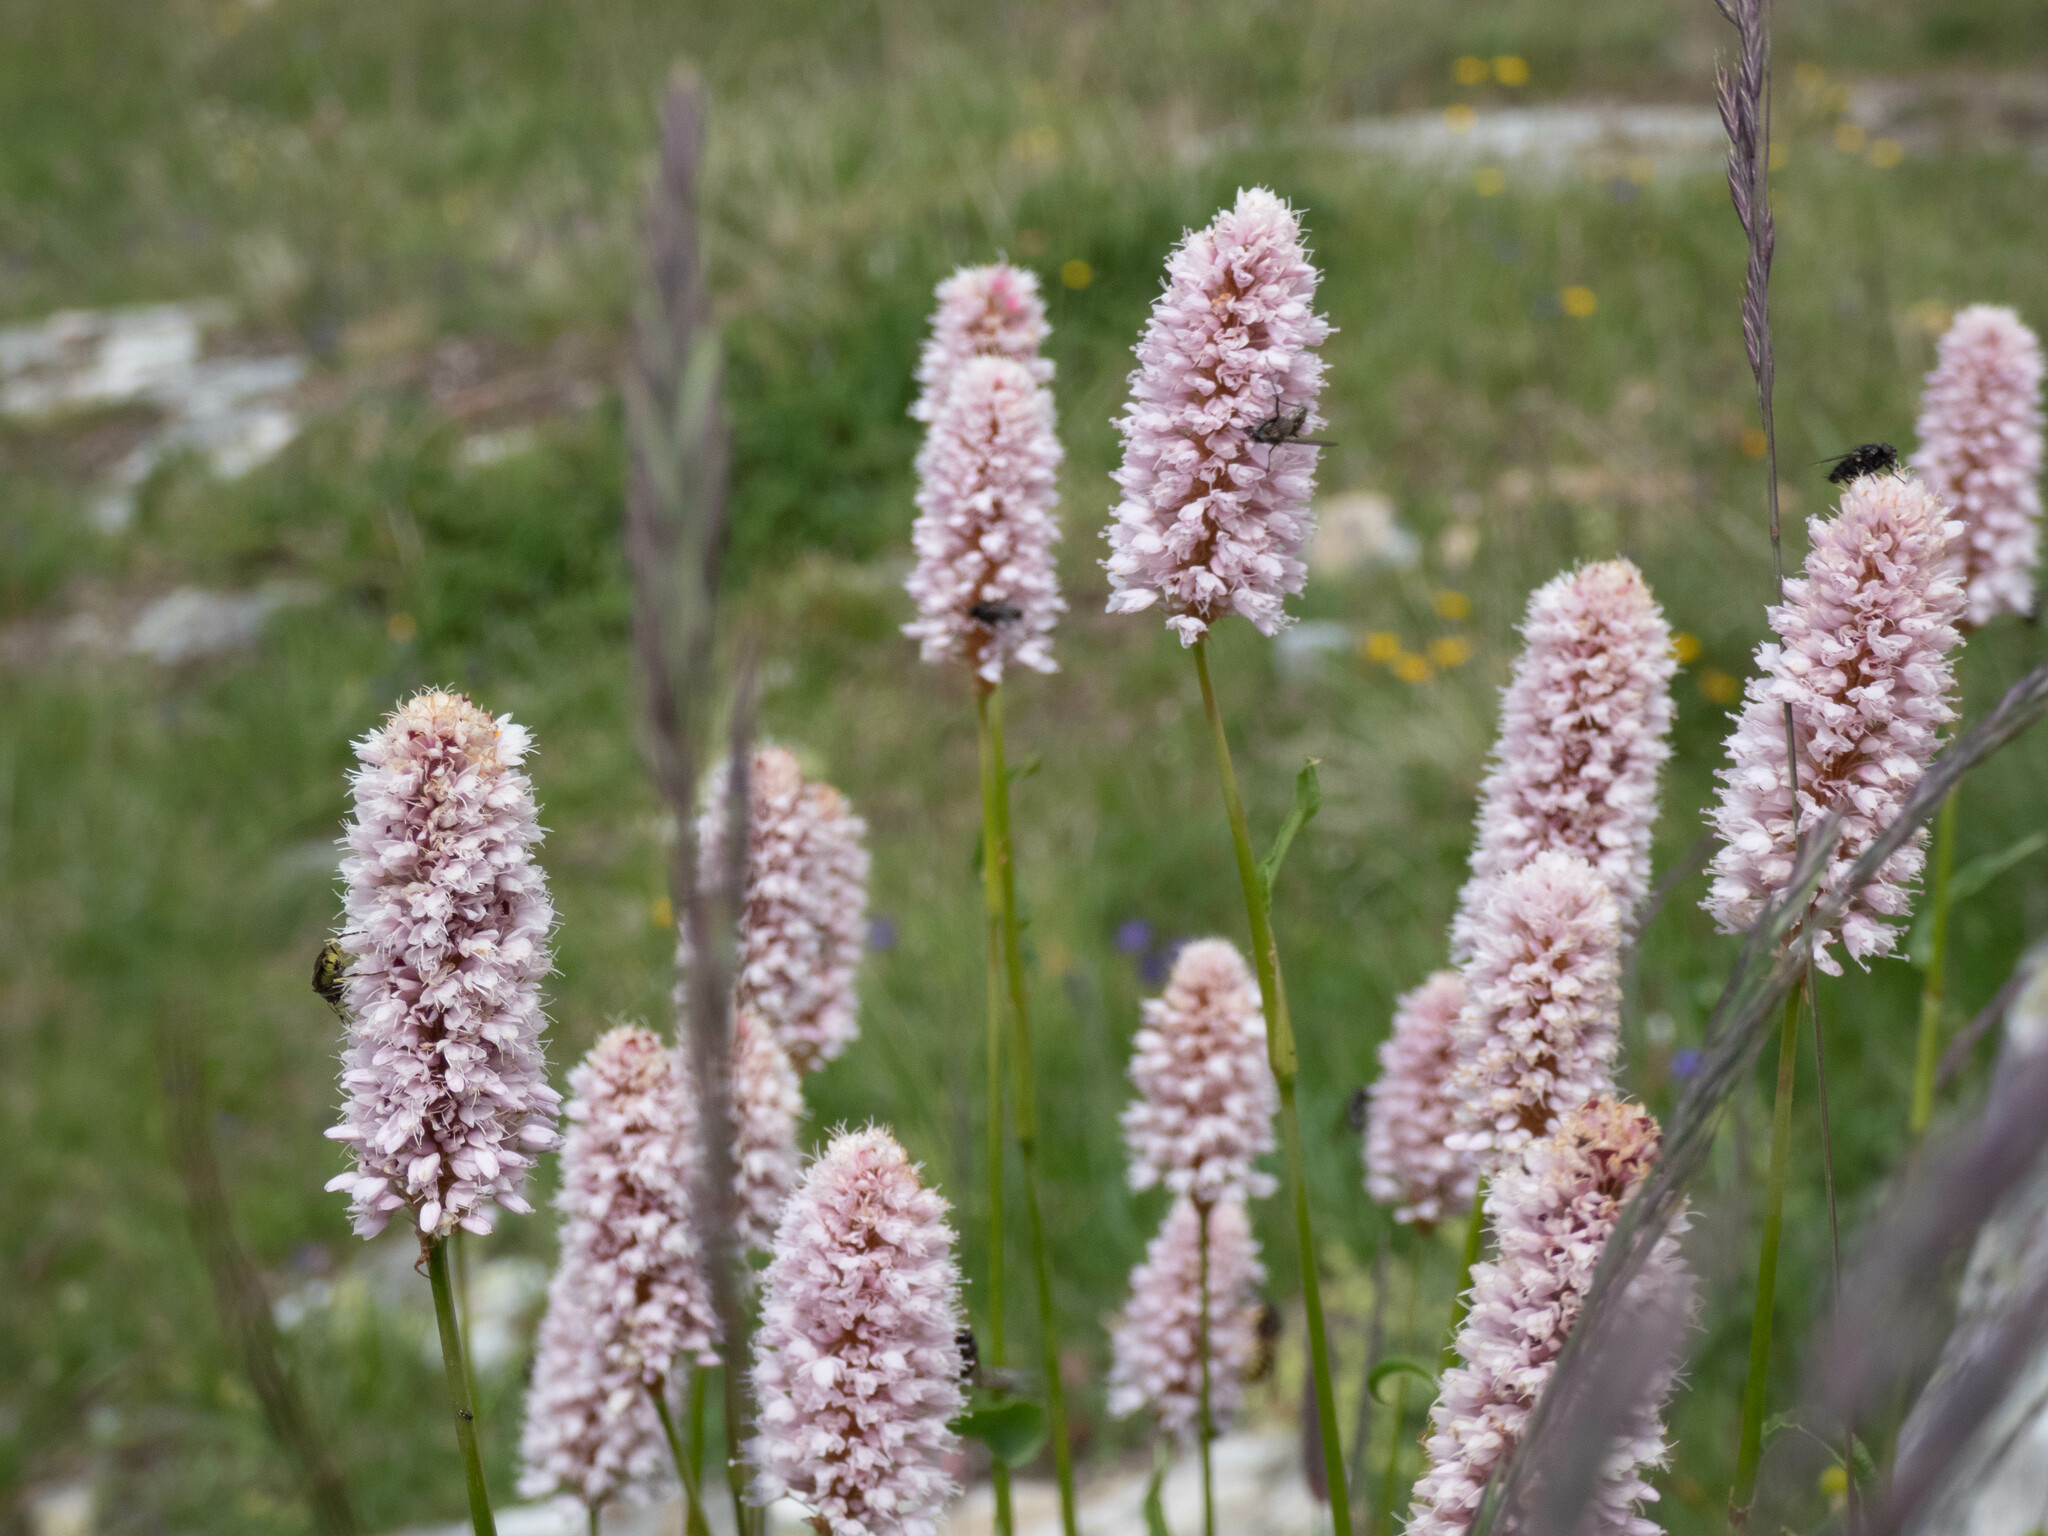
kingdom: Plantae
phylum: Tracheophyta
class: Magnoliopsida
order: Caryophyllales
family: Polygonaceae
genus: Bistorta
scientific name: Bistorta officinalis
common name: Common bistort
